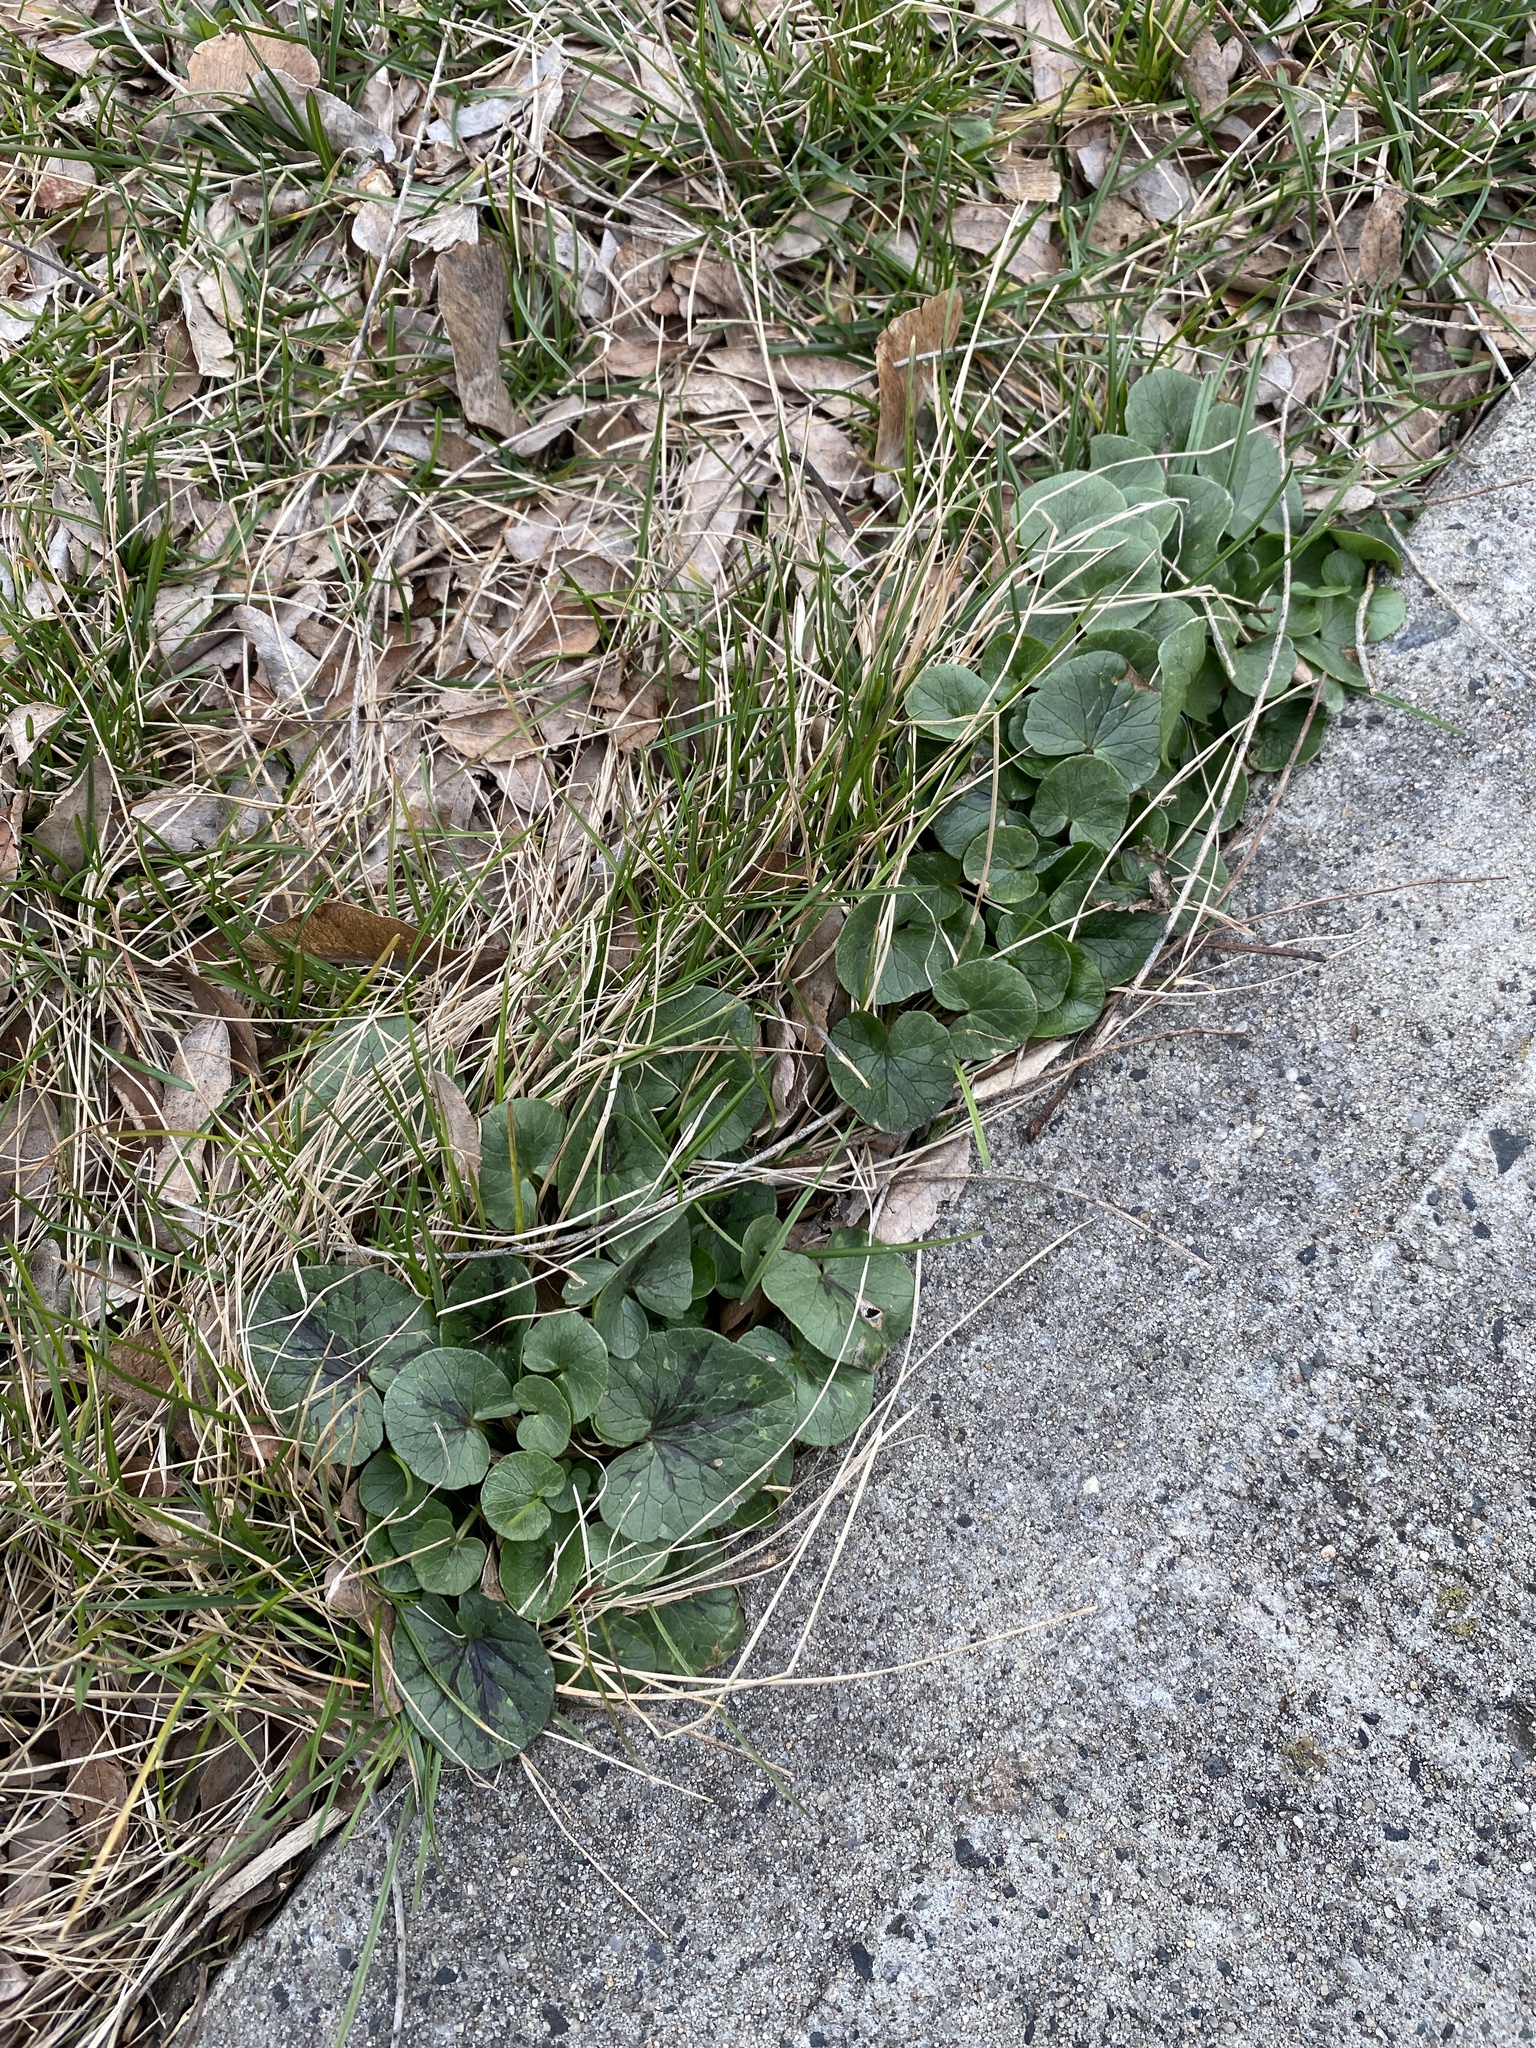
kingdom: Plantae
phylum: Tracheophyta
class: Magnoliopsida
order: Ranunculales
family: Ranunculaceae
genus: Ficaria
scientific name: Ficaria verna
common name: Lesser celandine
